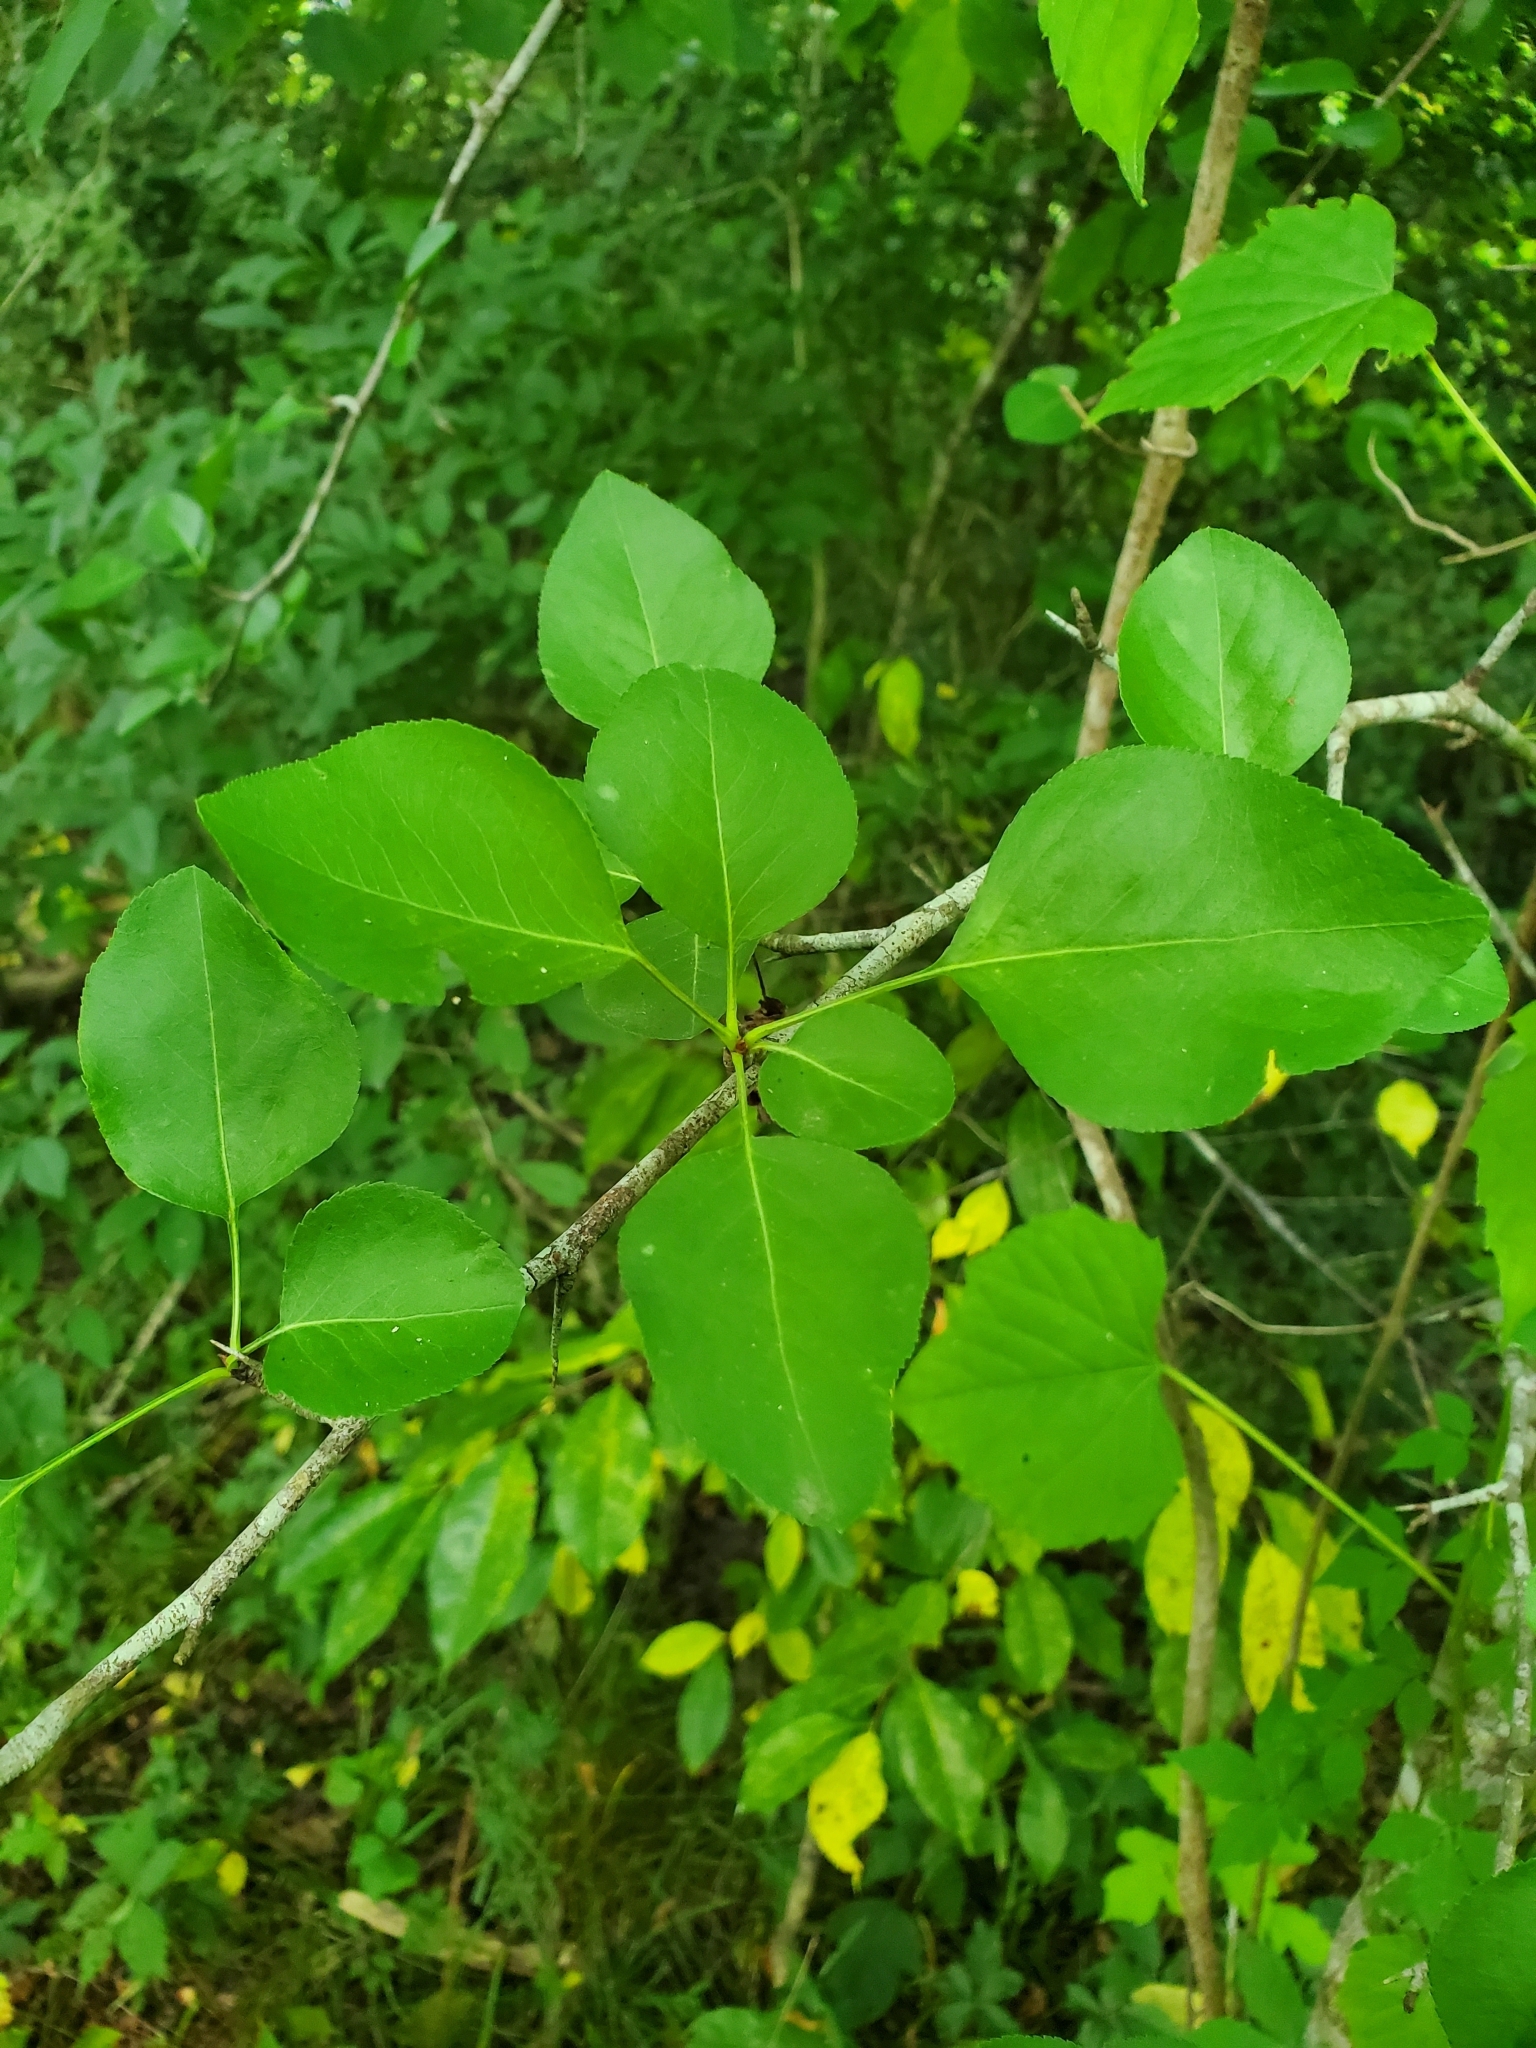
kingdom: Plantae
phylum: Tracheophyta
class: Magnoliopsida
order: Rosales
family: Rosaceae
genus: Pyrus
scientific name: Pyrus calleryana
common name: Callery pear
